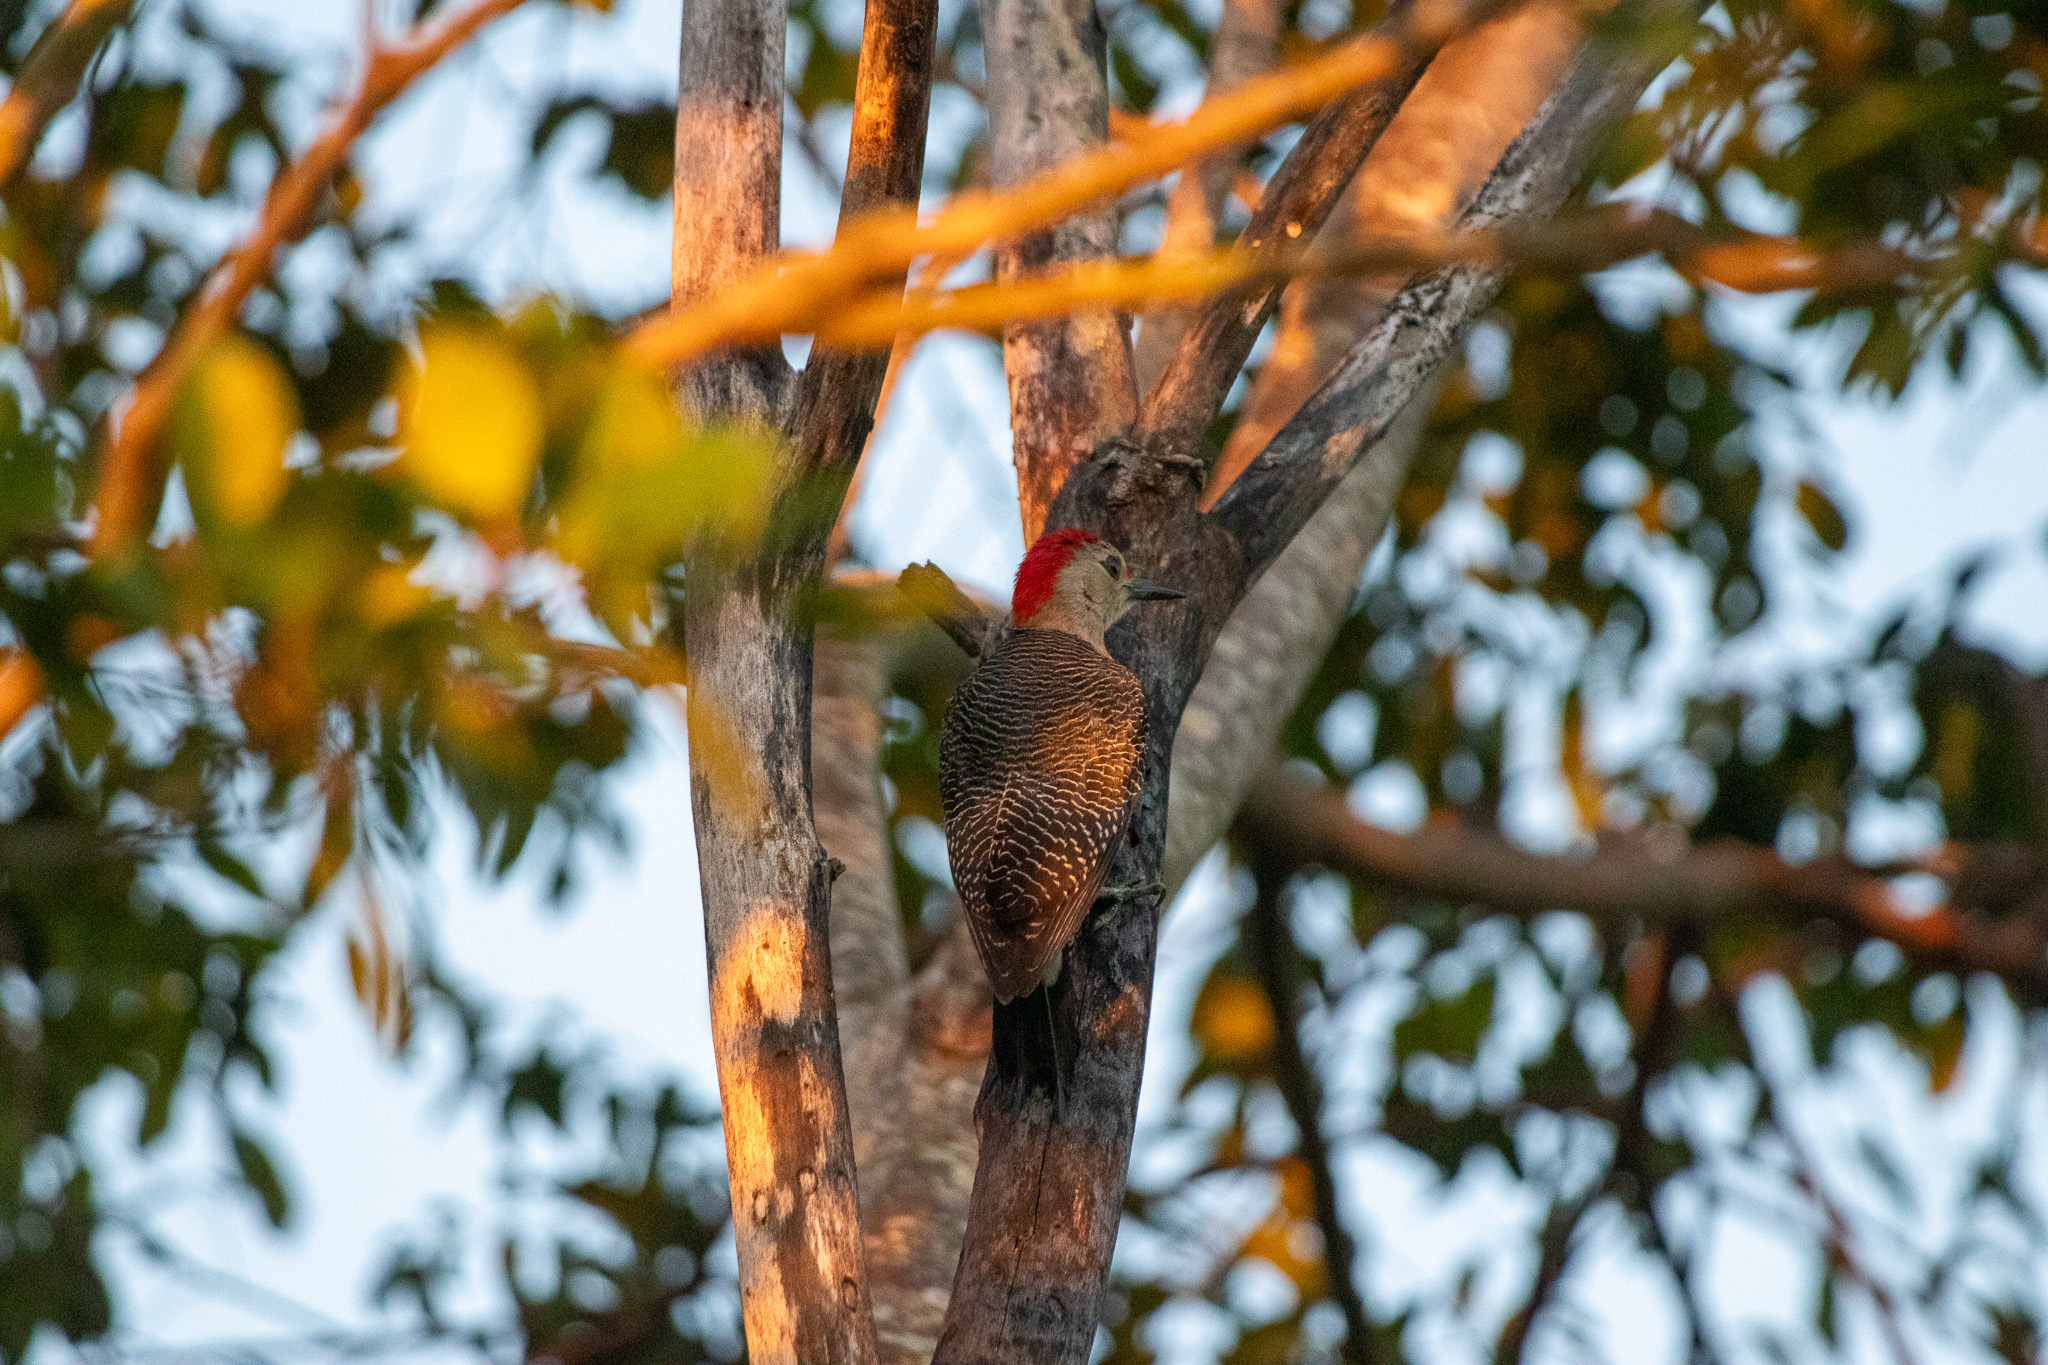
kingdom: Animalia
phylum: Chordata
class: Aves
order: Piciformes
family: Picidae
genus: Melanerpes
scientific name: Melanerpes aurifrons
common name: Golden-fronted woodpecker
